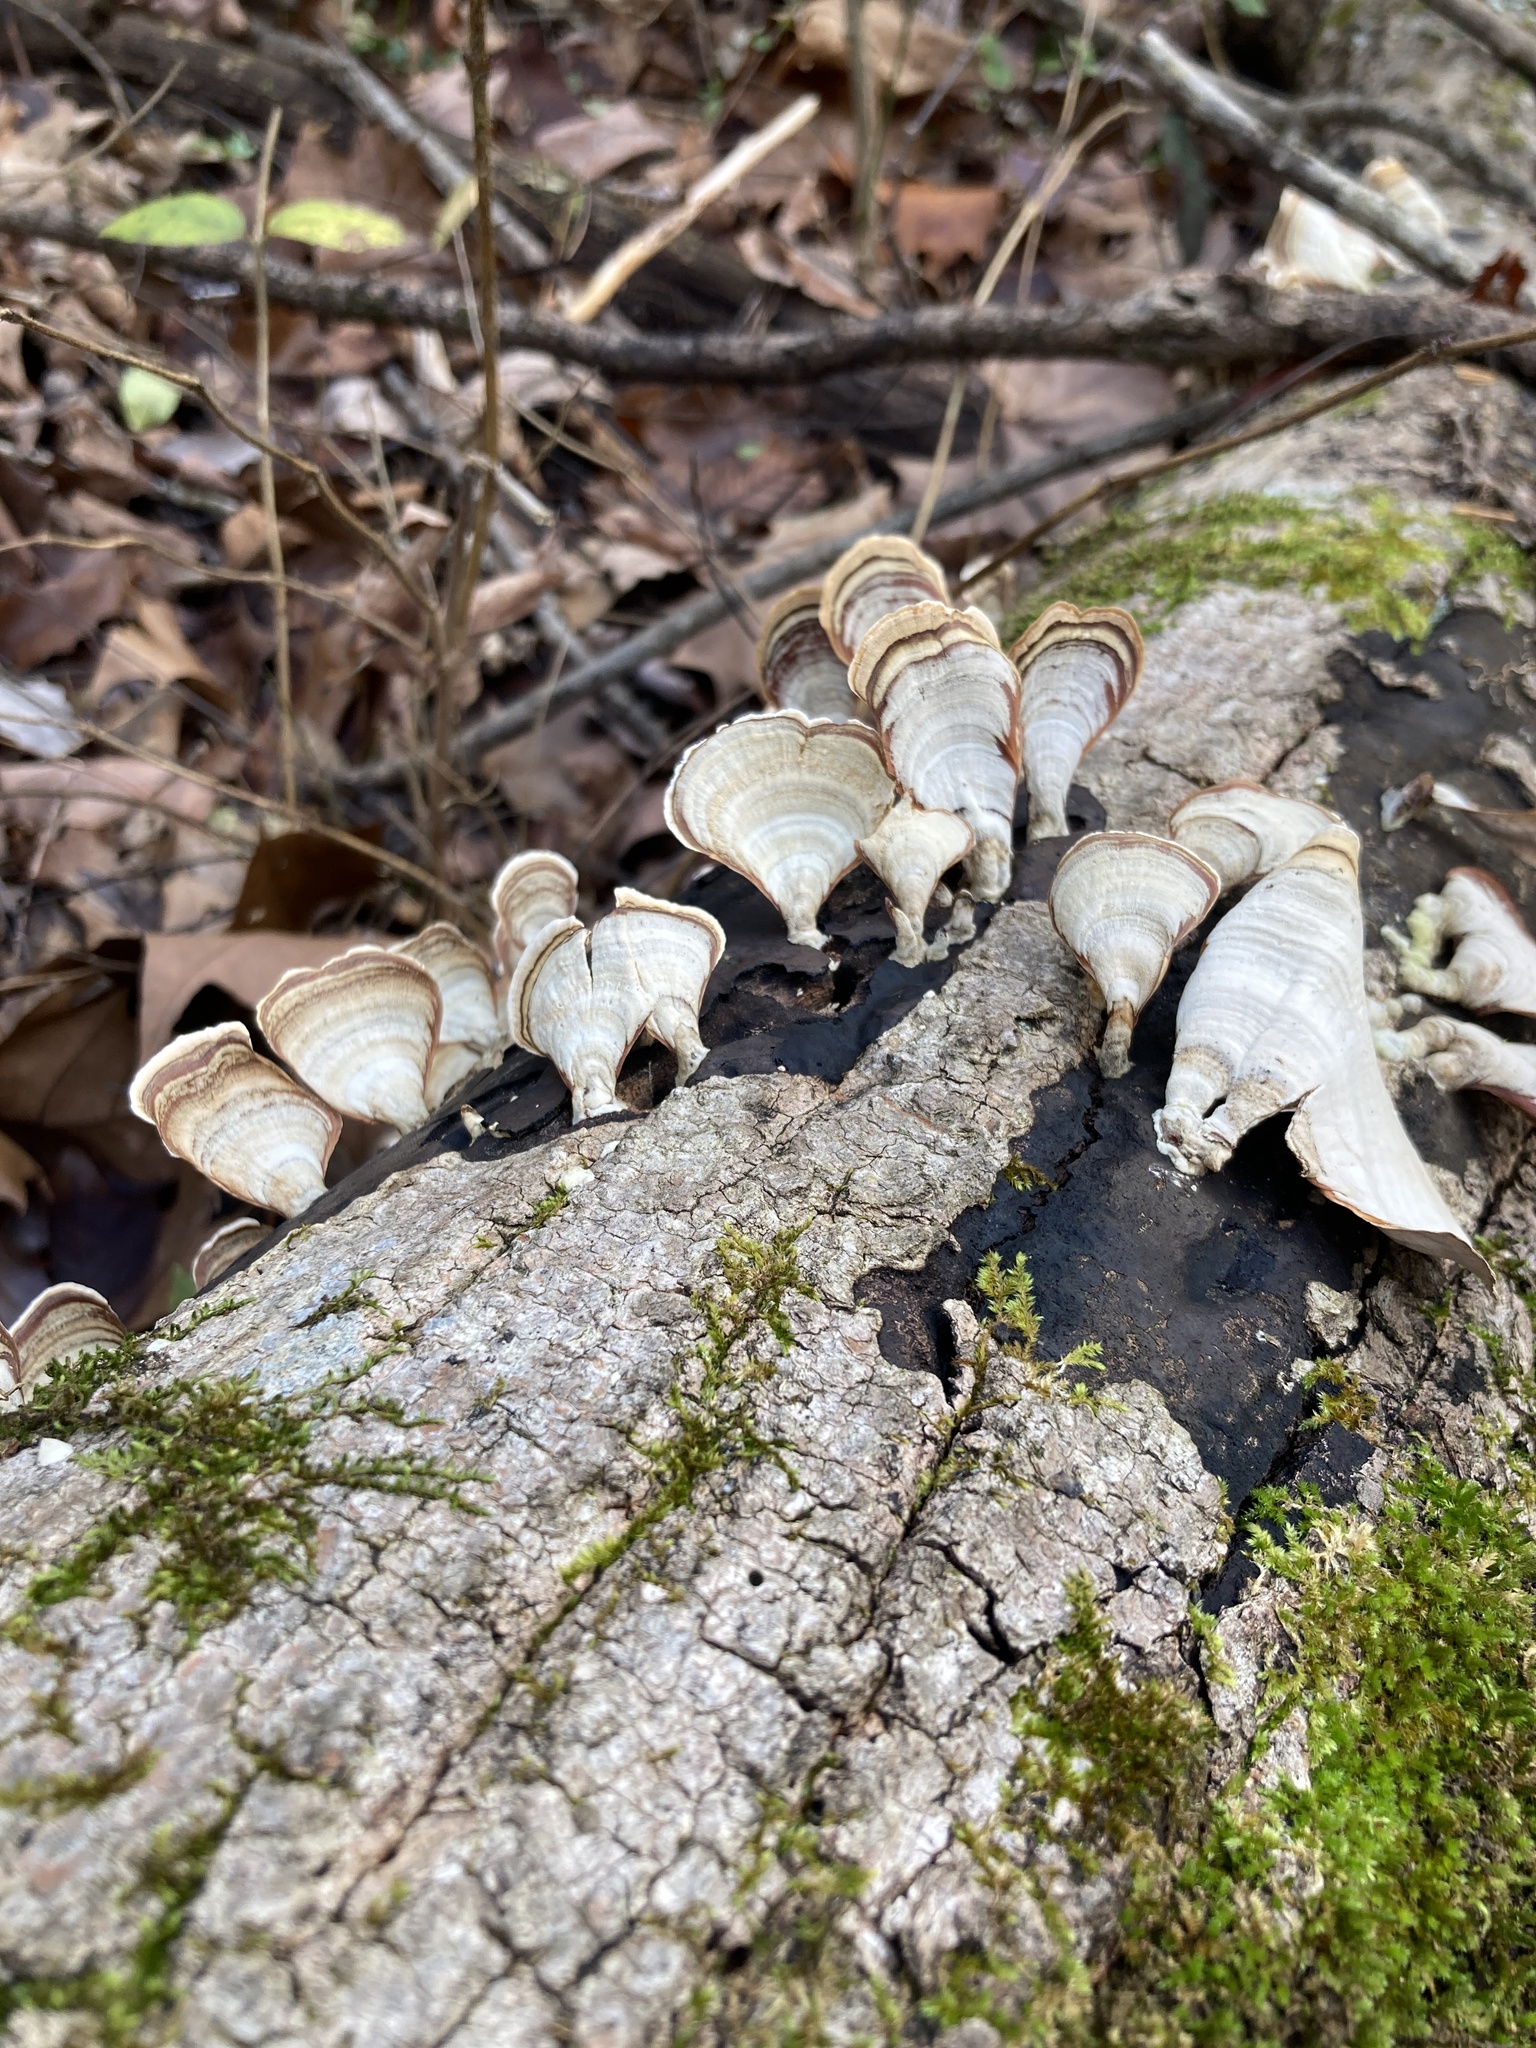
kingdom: Fungi
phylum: Basidiomycota
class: Agaricomycetes
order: Russulales
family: Stereaceae
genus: Stereum
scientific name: Stereum lobatum
